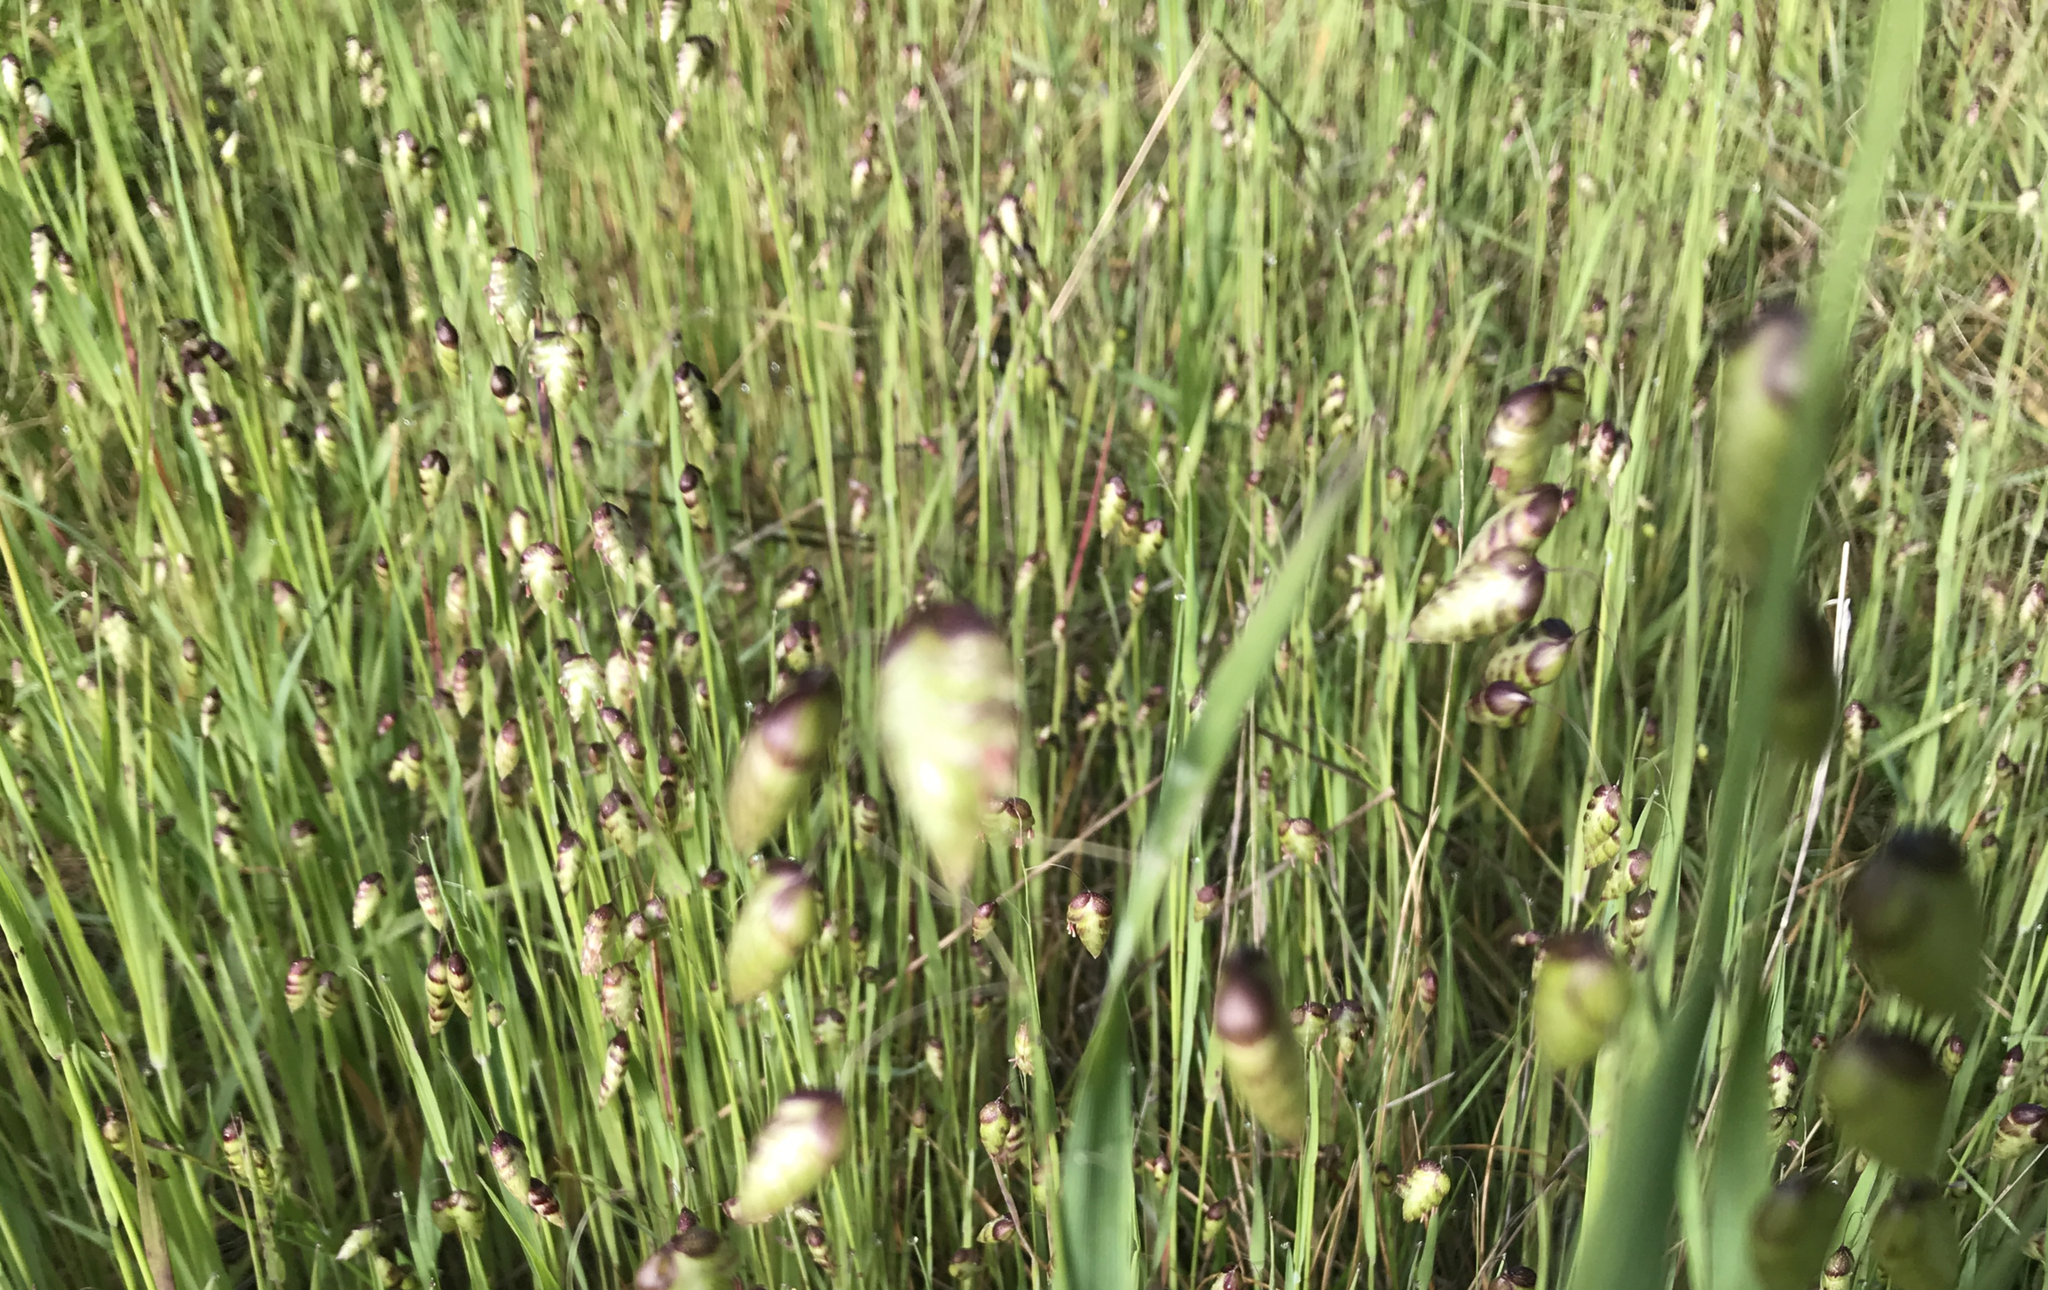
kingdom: Plantae
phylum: Tracheophyta
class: Liliopsida
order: Poales
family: Poaceae
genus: Briza
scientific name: Briza maxima
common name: Big quakinggrass
